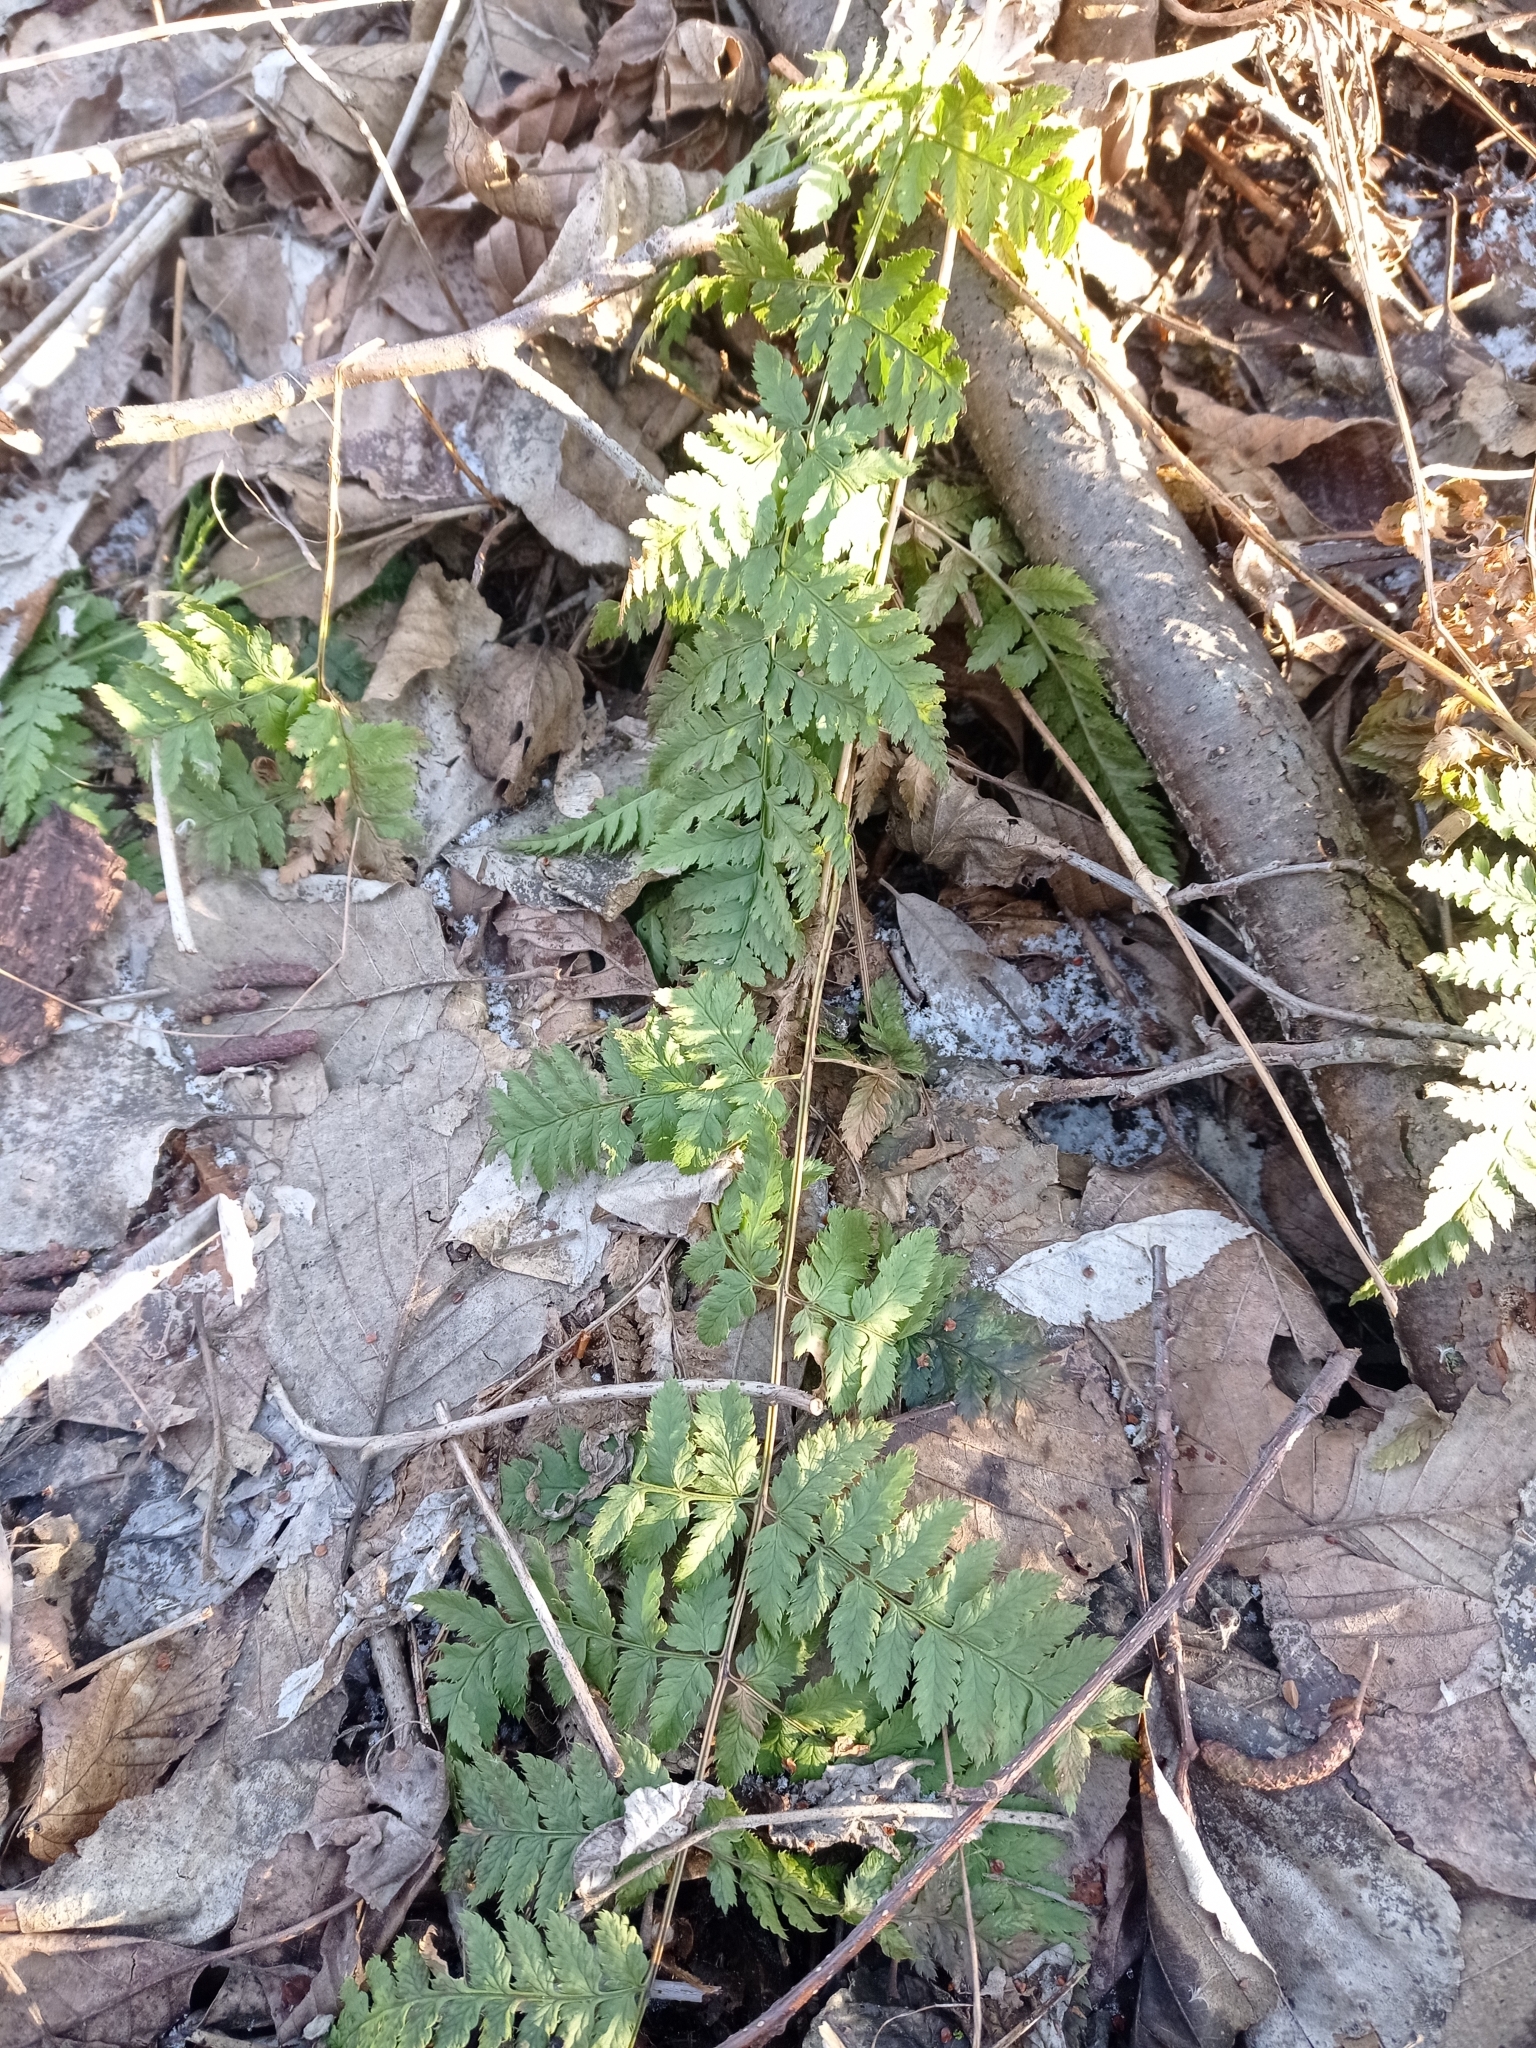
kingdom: Plantae
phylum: Tracheophyta
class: Polypodiopsida
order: Polypodiales
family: Dryopteridaceae
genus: Dryopteris
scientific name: Dryopteris carthusiana
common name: Narrow buckler-fern
